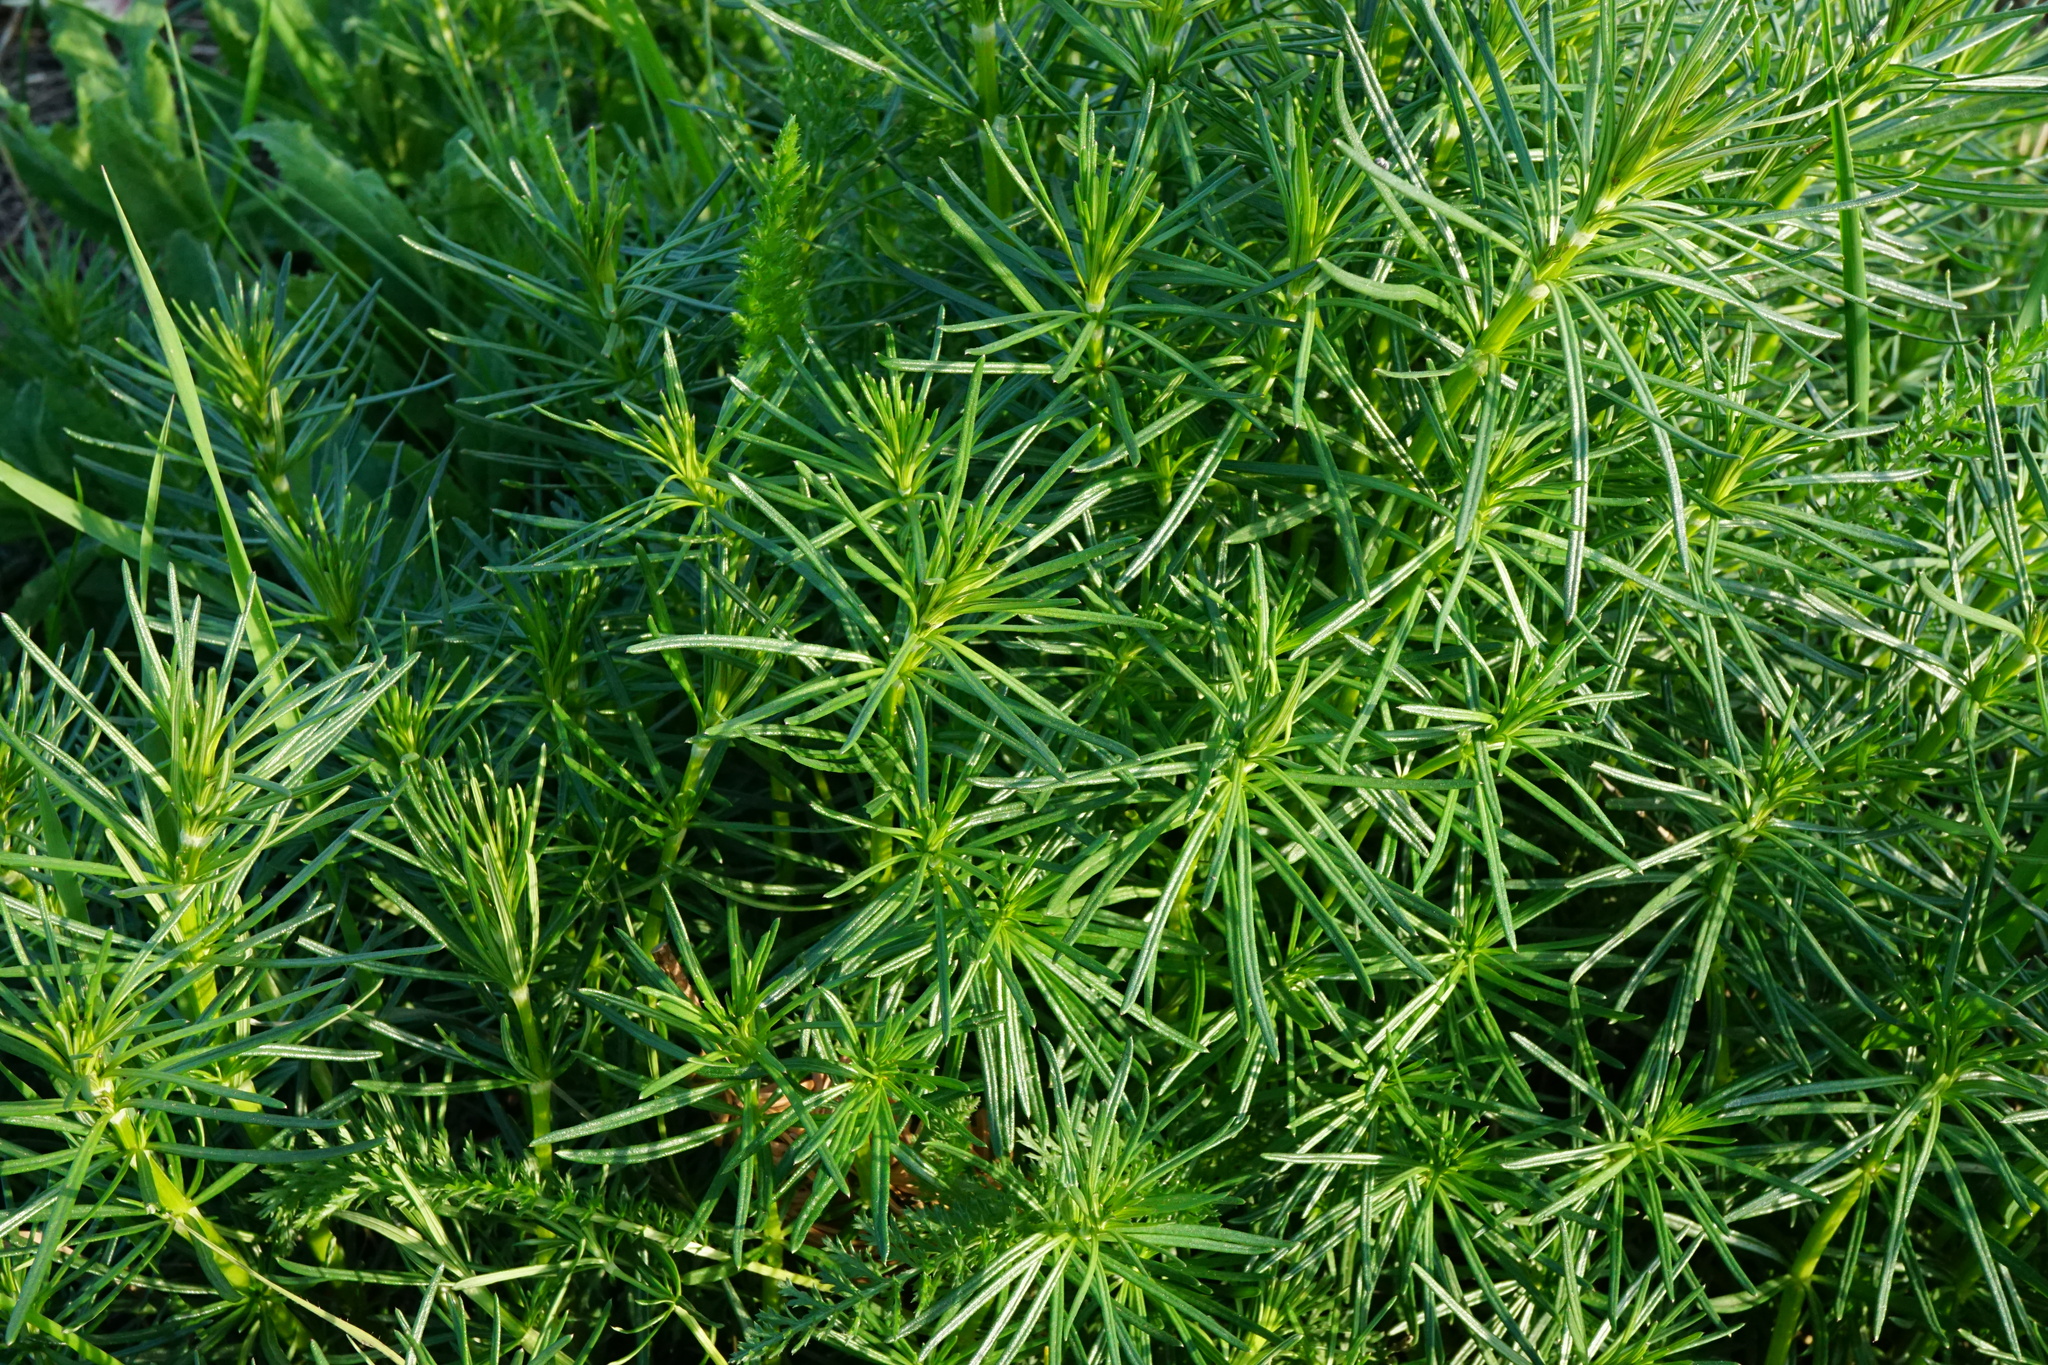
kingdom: Plantae
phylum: Tracheophyta
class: Magnoliopsida
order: Gentianales
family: Rubiaceae
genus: Galium
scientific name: Galium verum
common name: Lady's bedstraw
